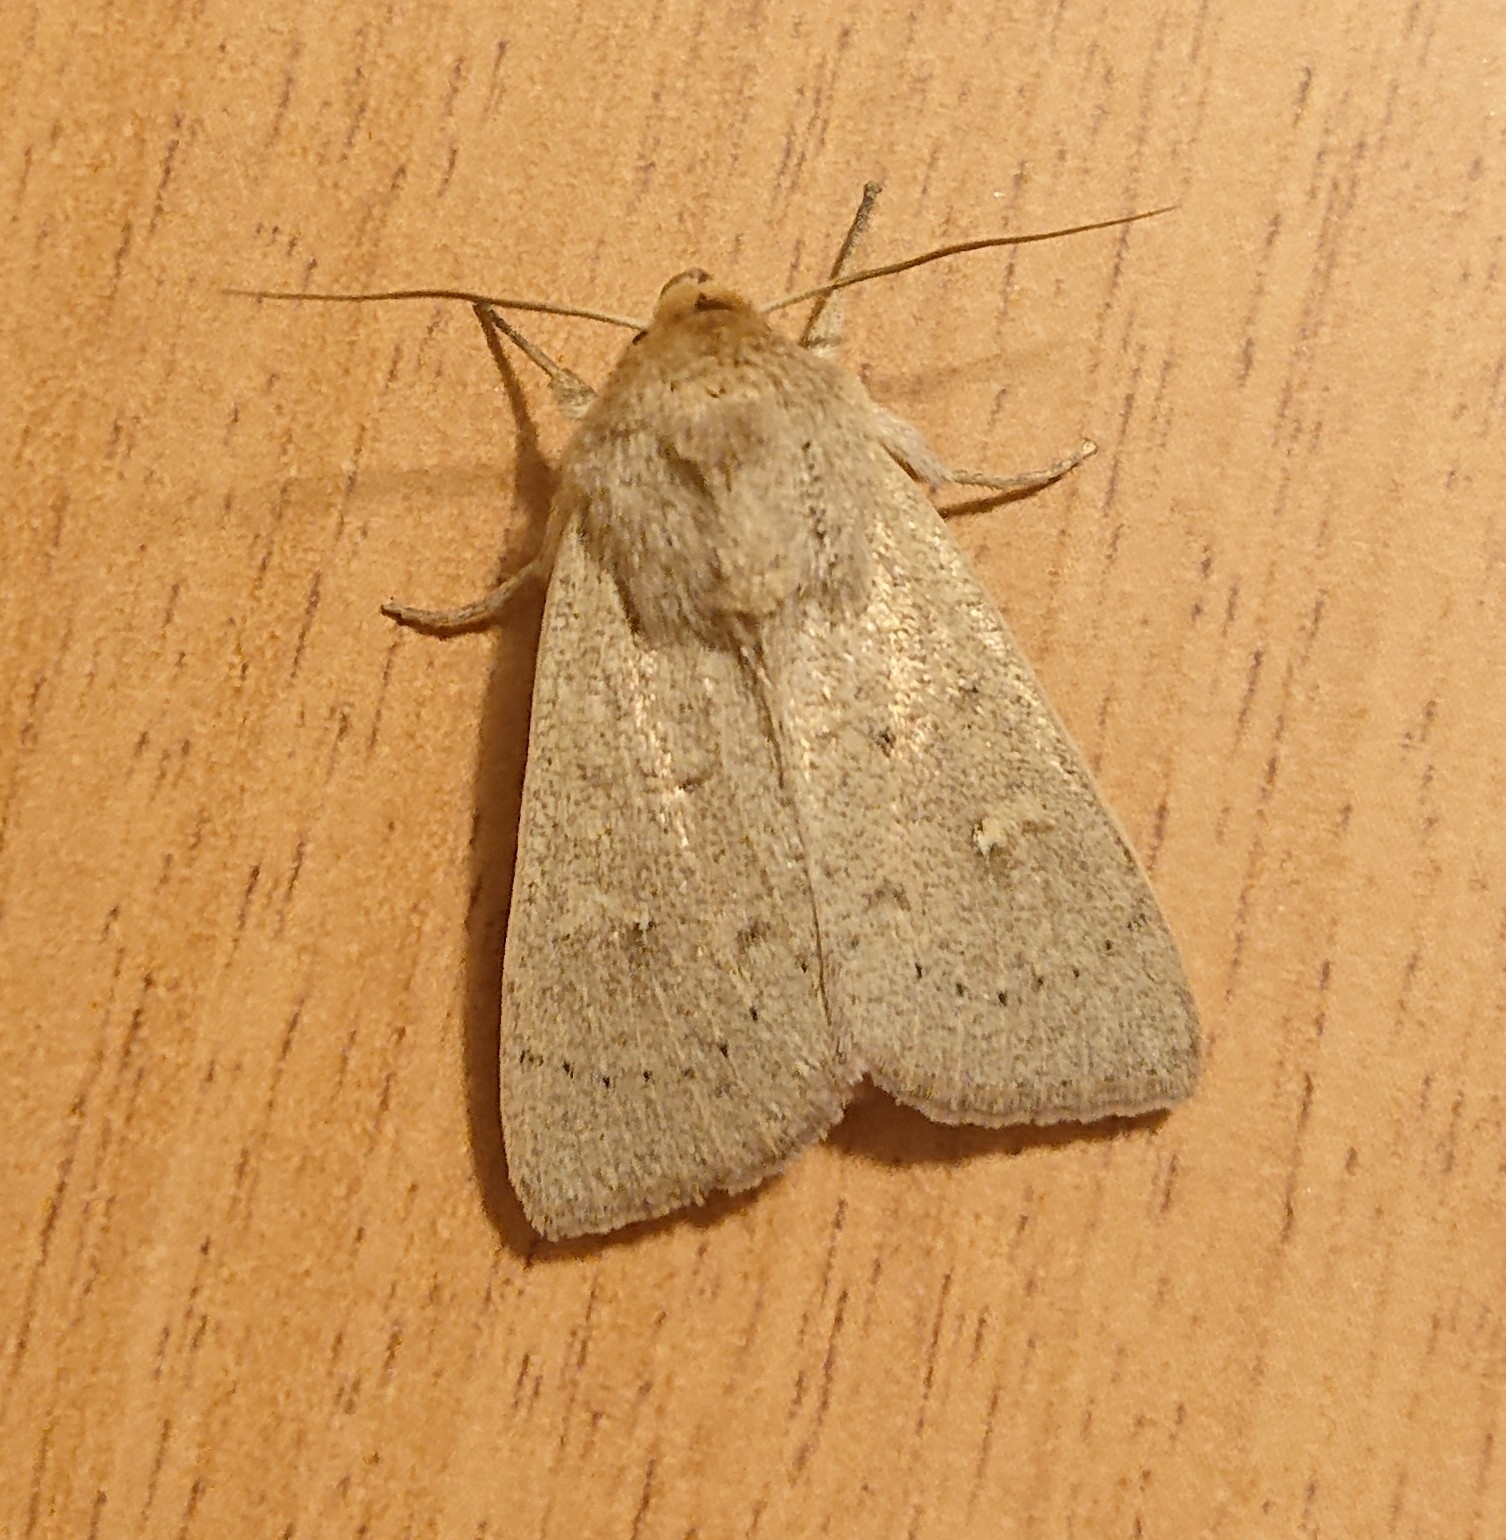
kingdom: Animalia
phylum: Arthropoda
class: Insecta
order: Lepidoptera
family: Noctuidae
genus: Mythimna
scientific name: Mythimna ferrago
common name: Clay
